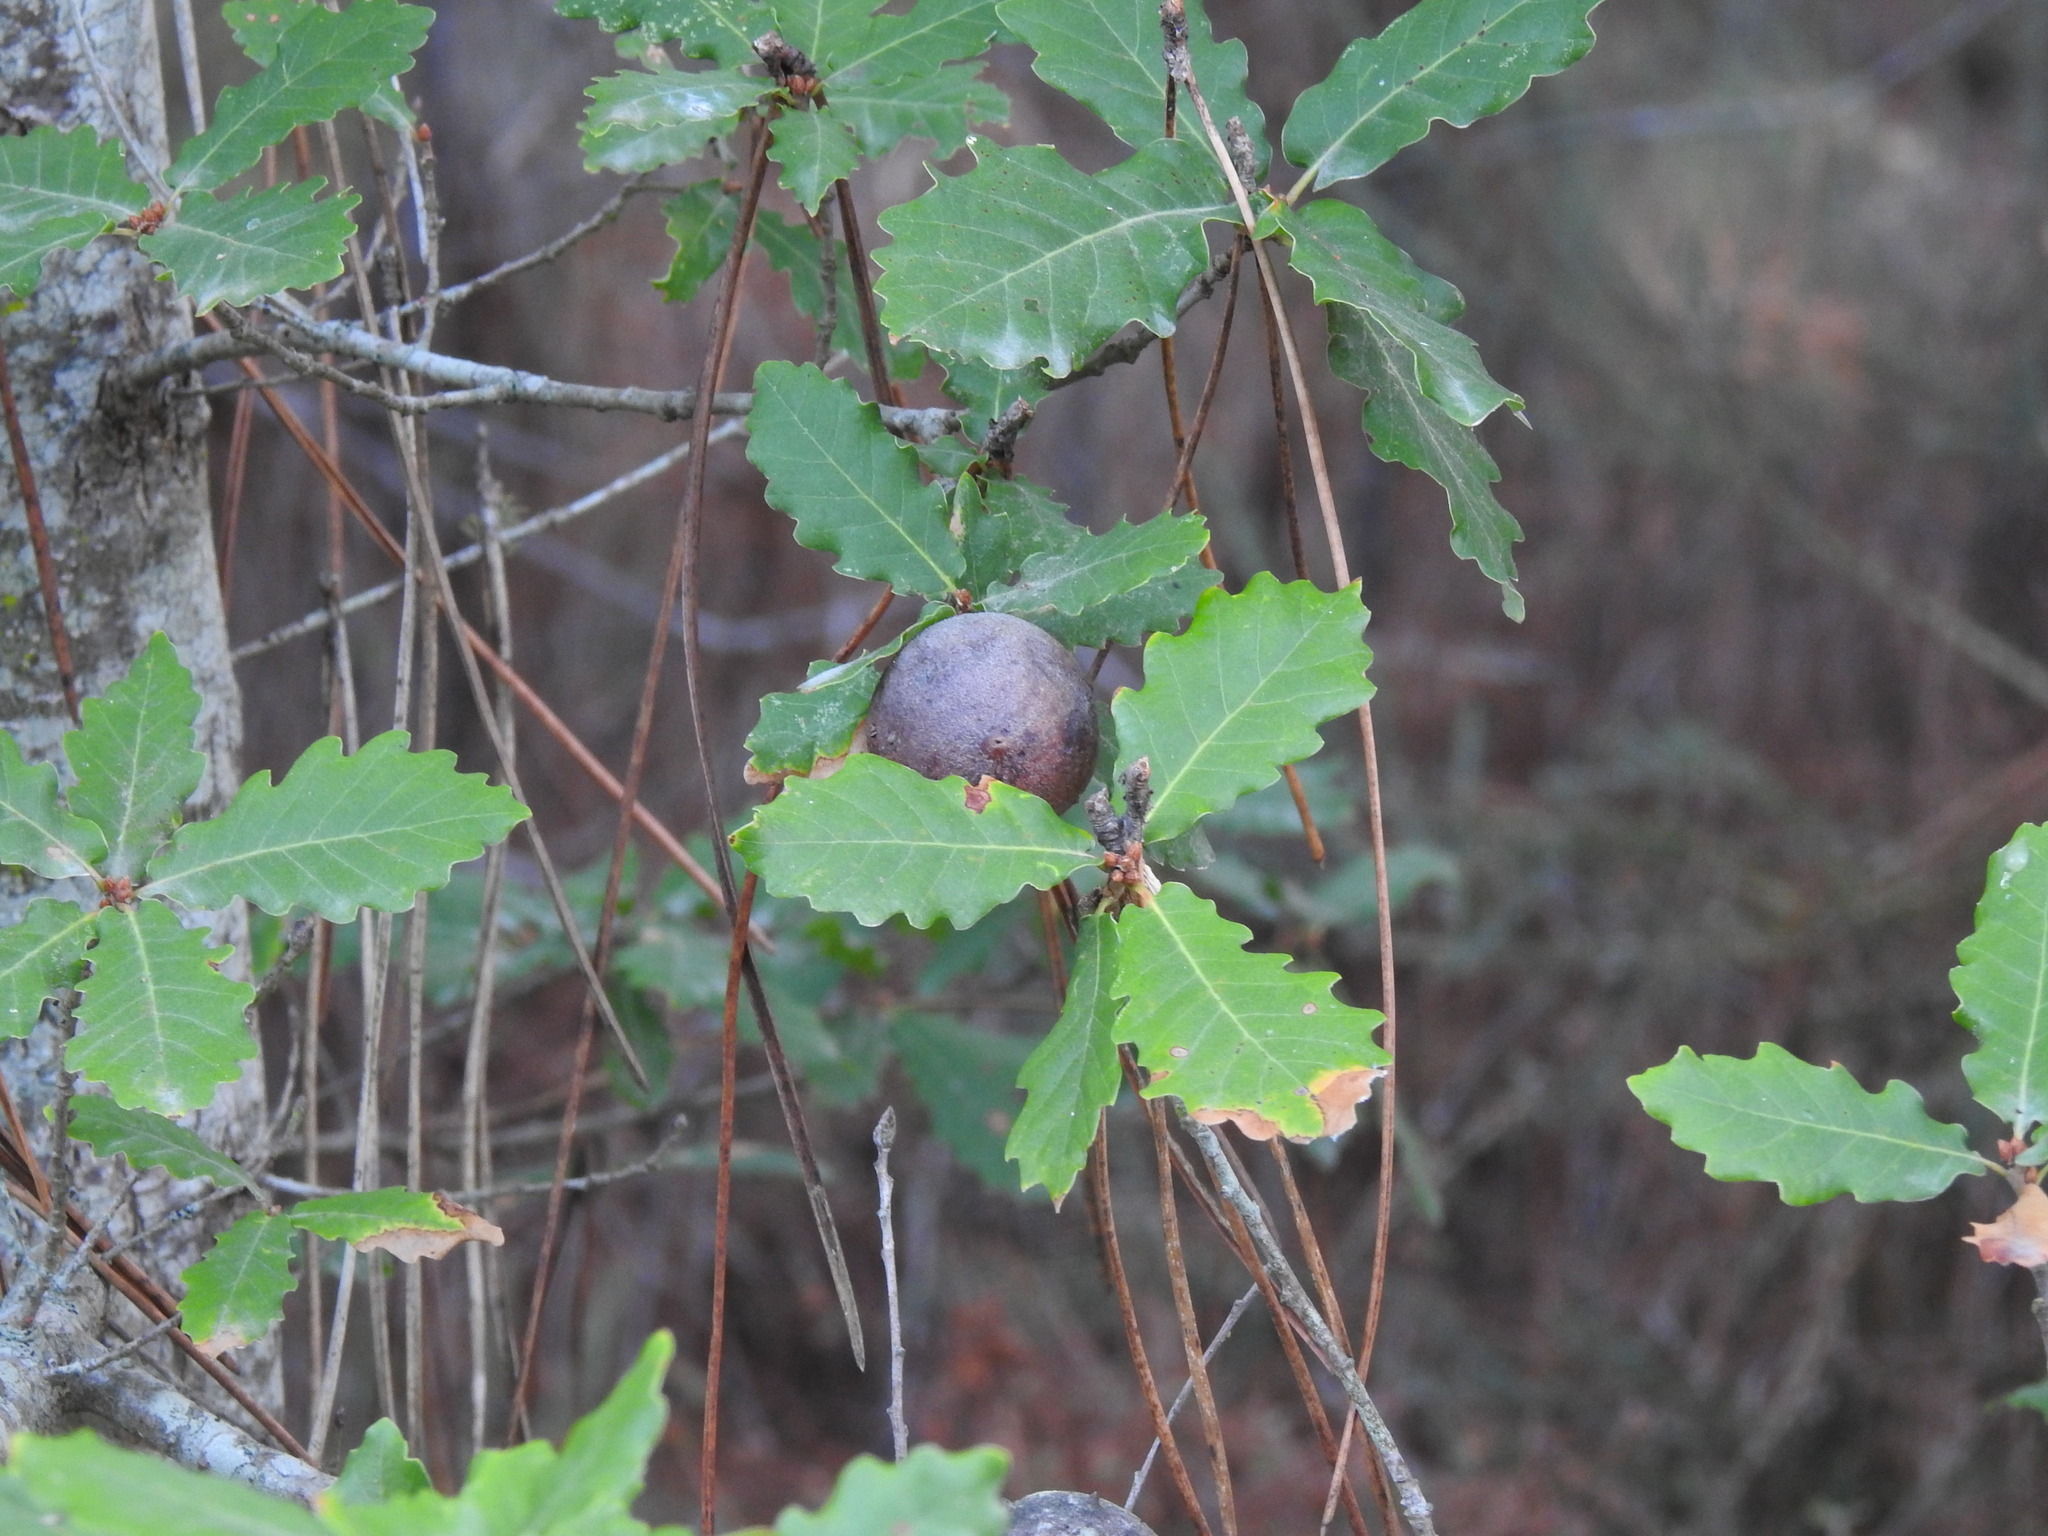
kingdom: Animalia
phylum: Arthropoda
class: Insecta
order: Hymenoptera
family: Cynipidae
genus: Andricus
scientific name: Andricus quercustozae
